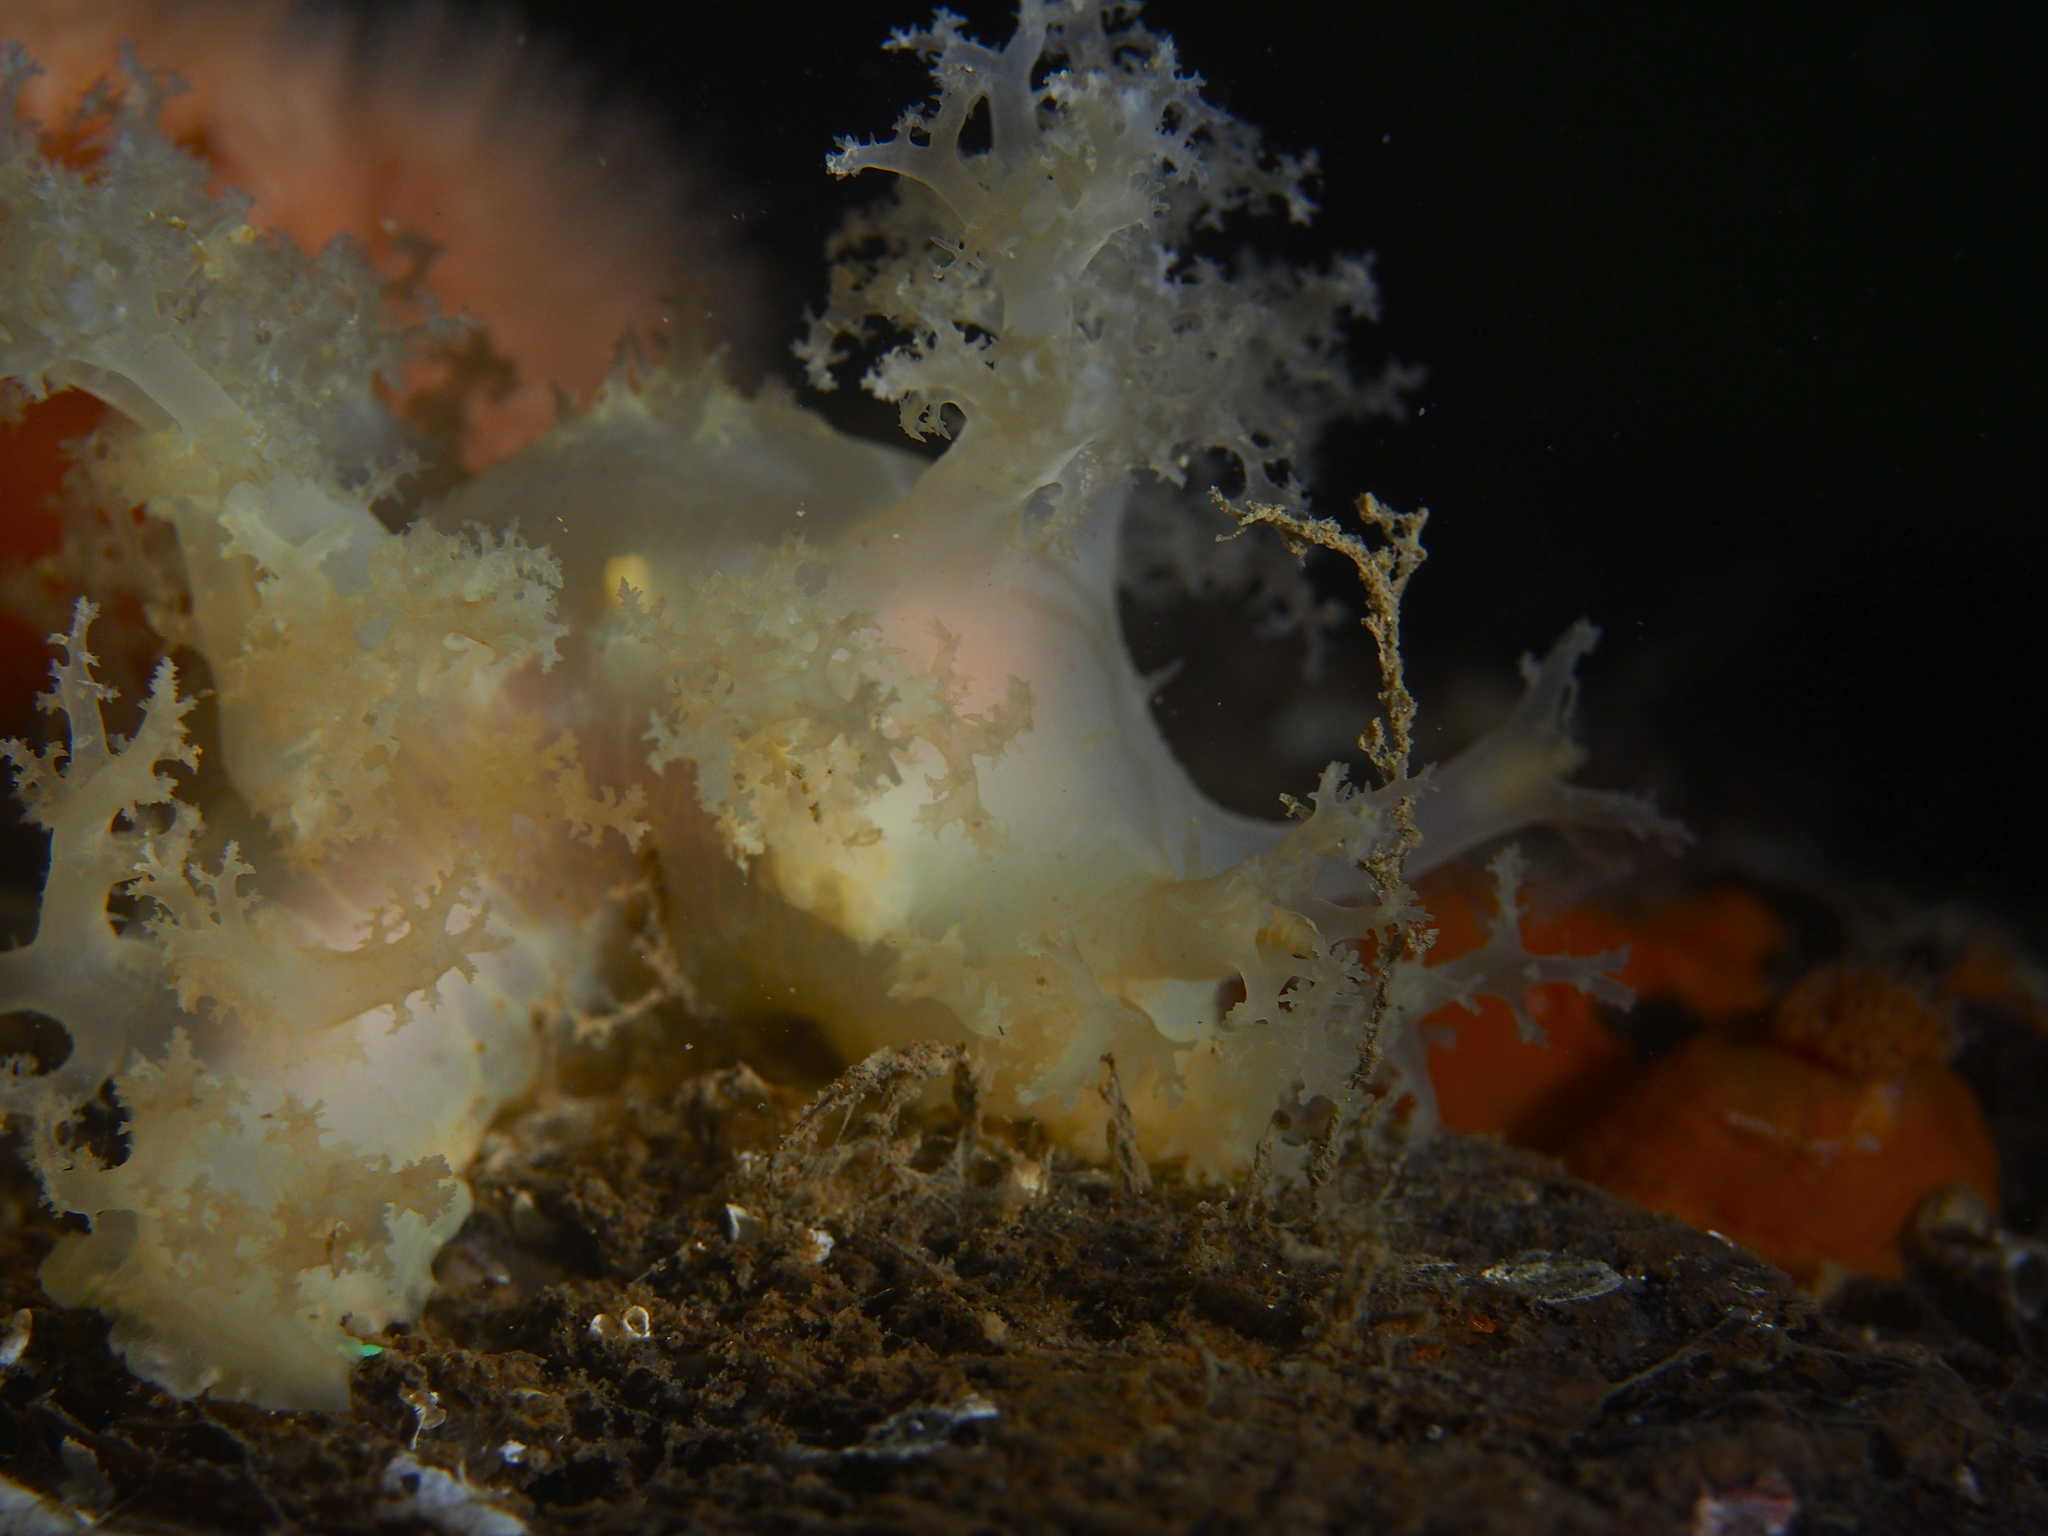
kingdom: Animalia
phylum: Mollusca
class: Gastropoda
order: Nudibranchia
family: Dendronotidae
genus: Dendronotus
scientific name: Dendronotus lacteus
